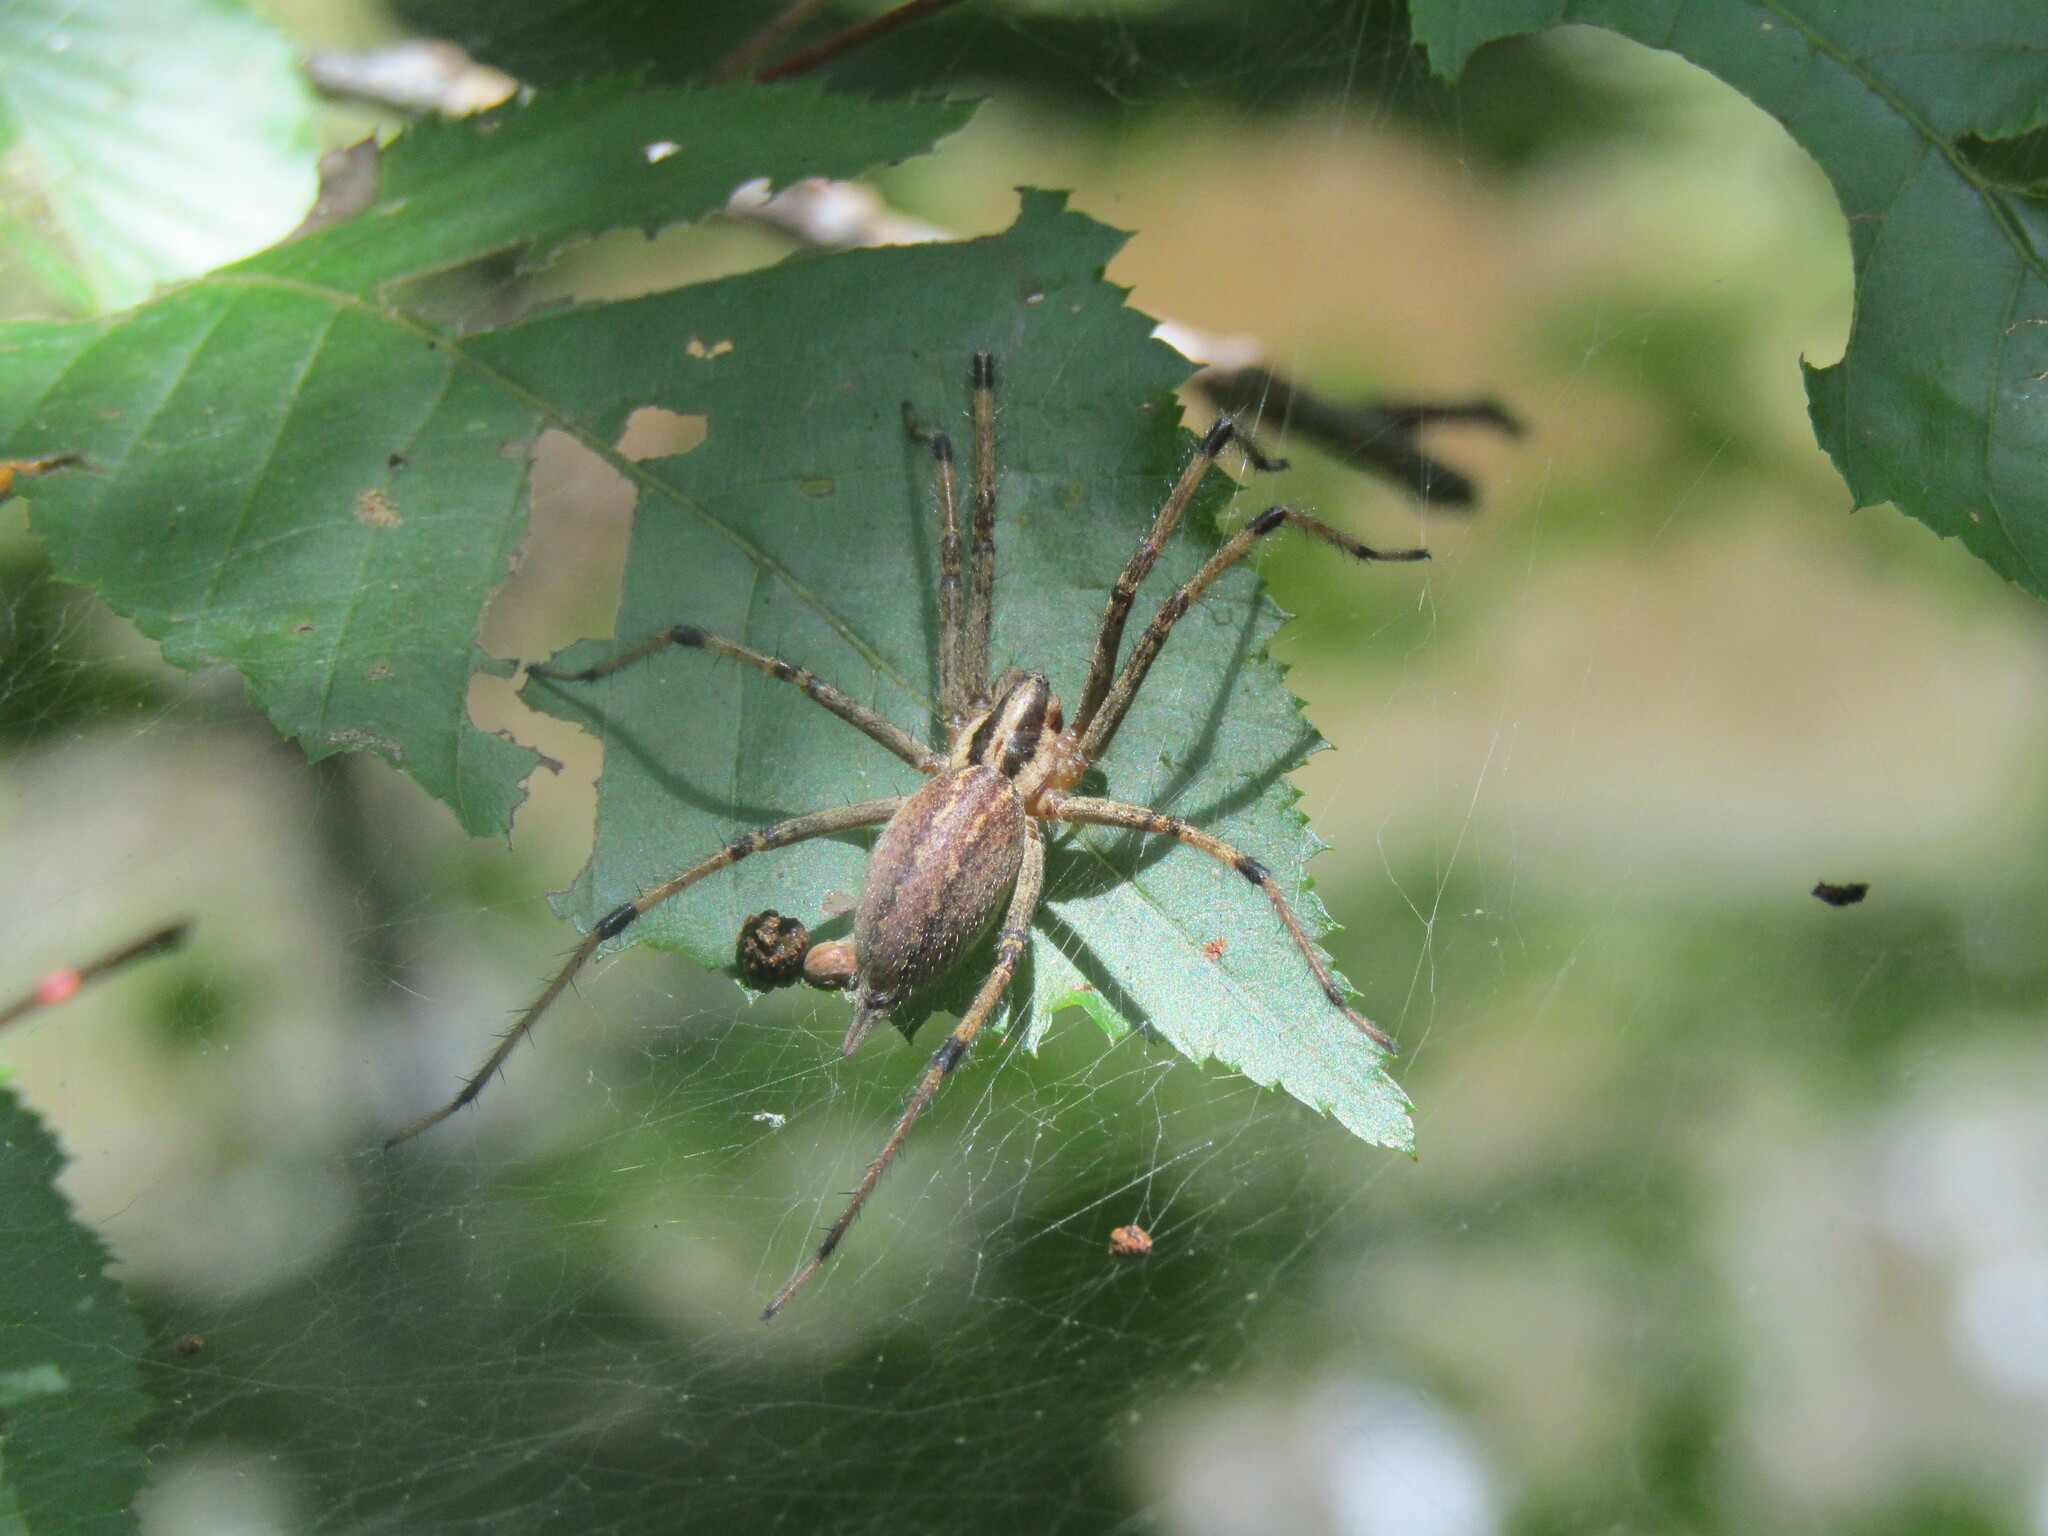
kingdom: Animalia
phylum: Arthropoda
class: Arachnida
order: Araneae
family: Agelenidae
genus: Agelenopsis
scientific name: Agelenopsis
